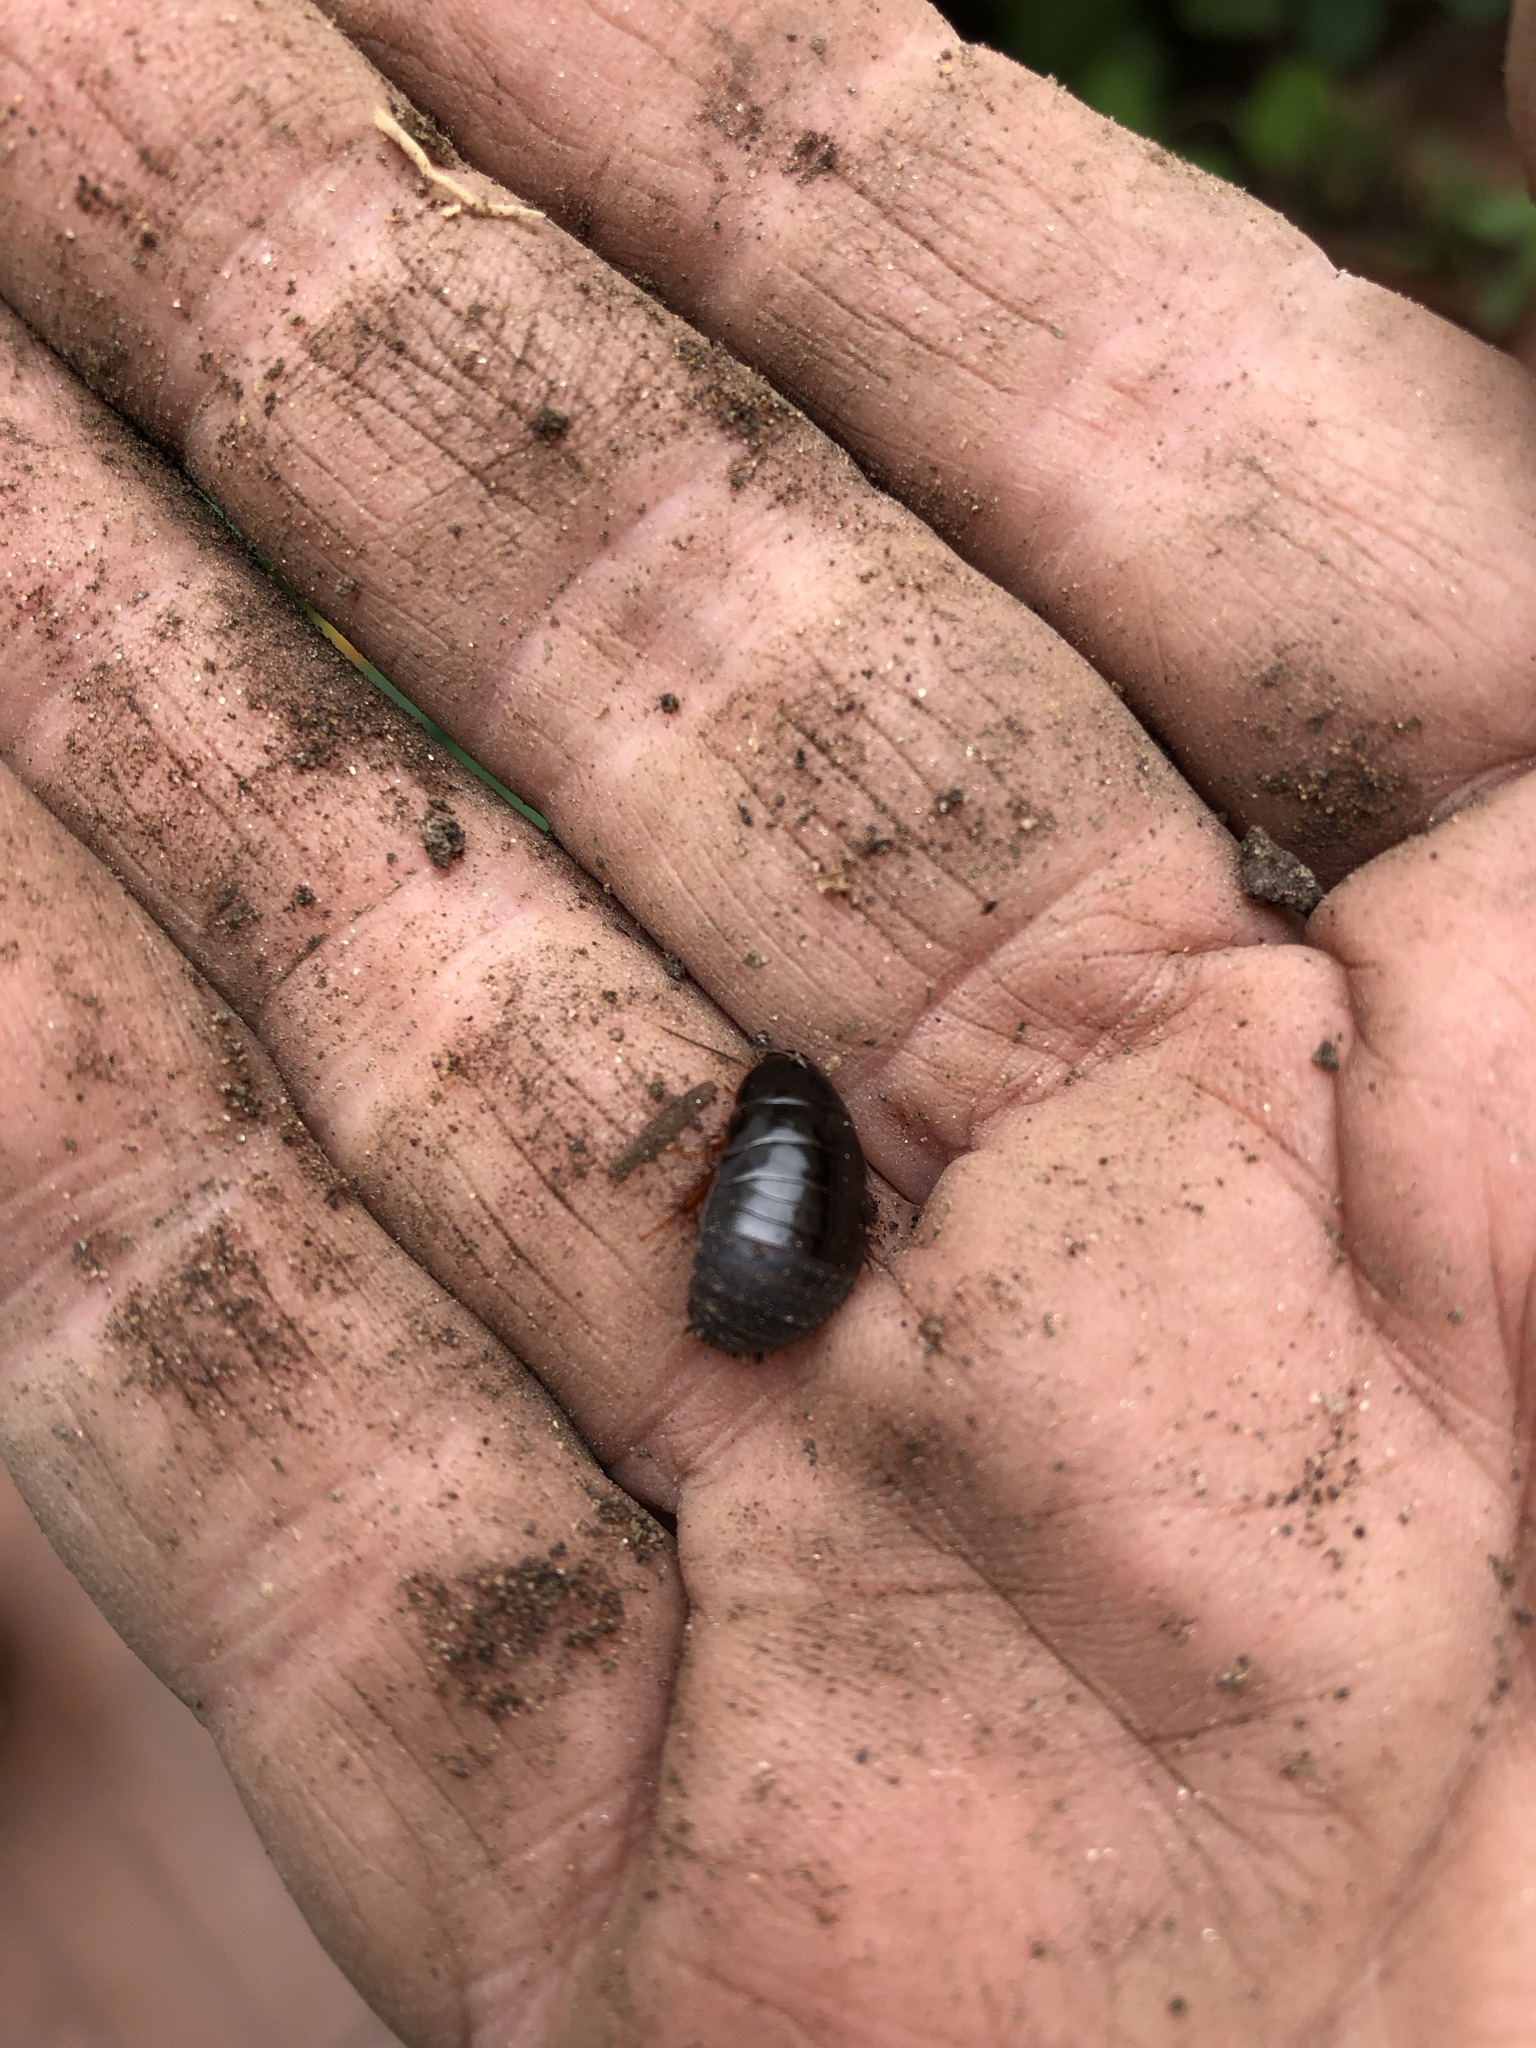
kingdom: Animalia
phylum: Arthropoda
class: Insecta
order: Blattodea
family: Blaberidae
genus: Pycnoscelus
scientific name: Pycnoscelus surinamensis
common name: Surinam cockroach
